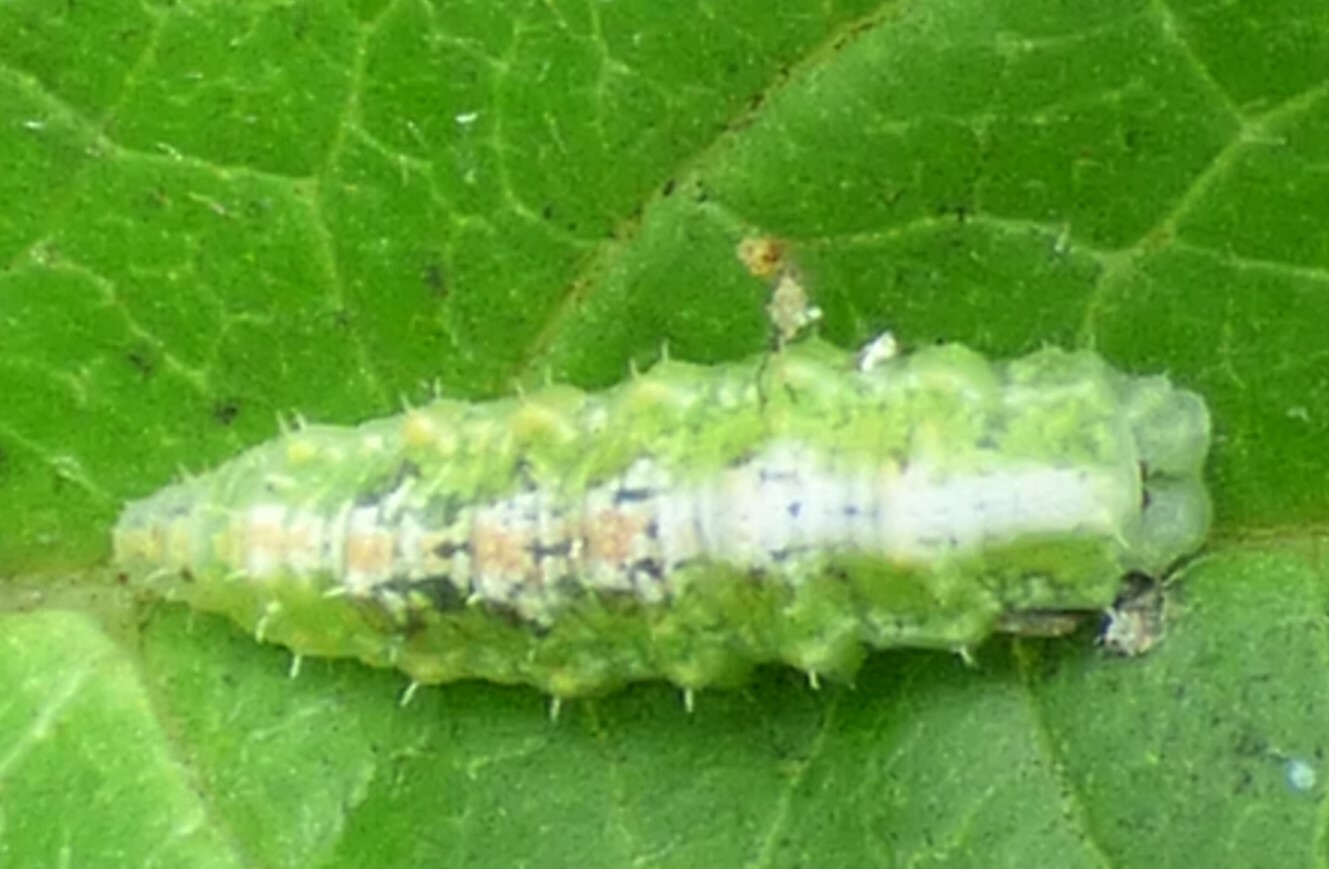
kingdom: Animalia
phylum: Arthropoda
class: Insecta
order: Diptera
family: Syrphidae
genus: Dioprosopa
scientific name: Dioprosopa clavatus
